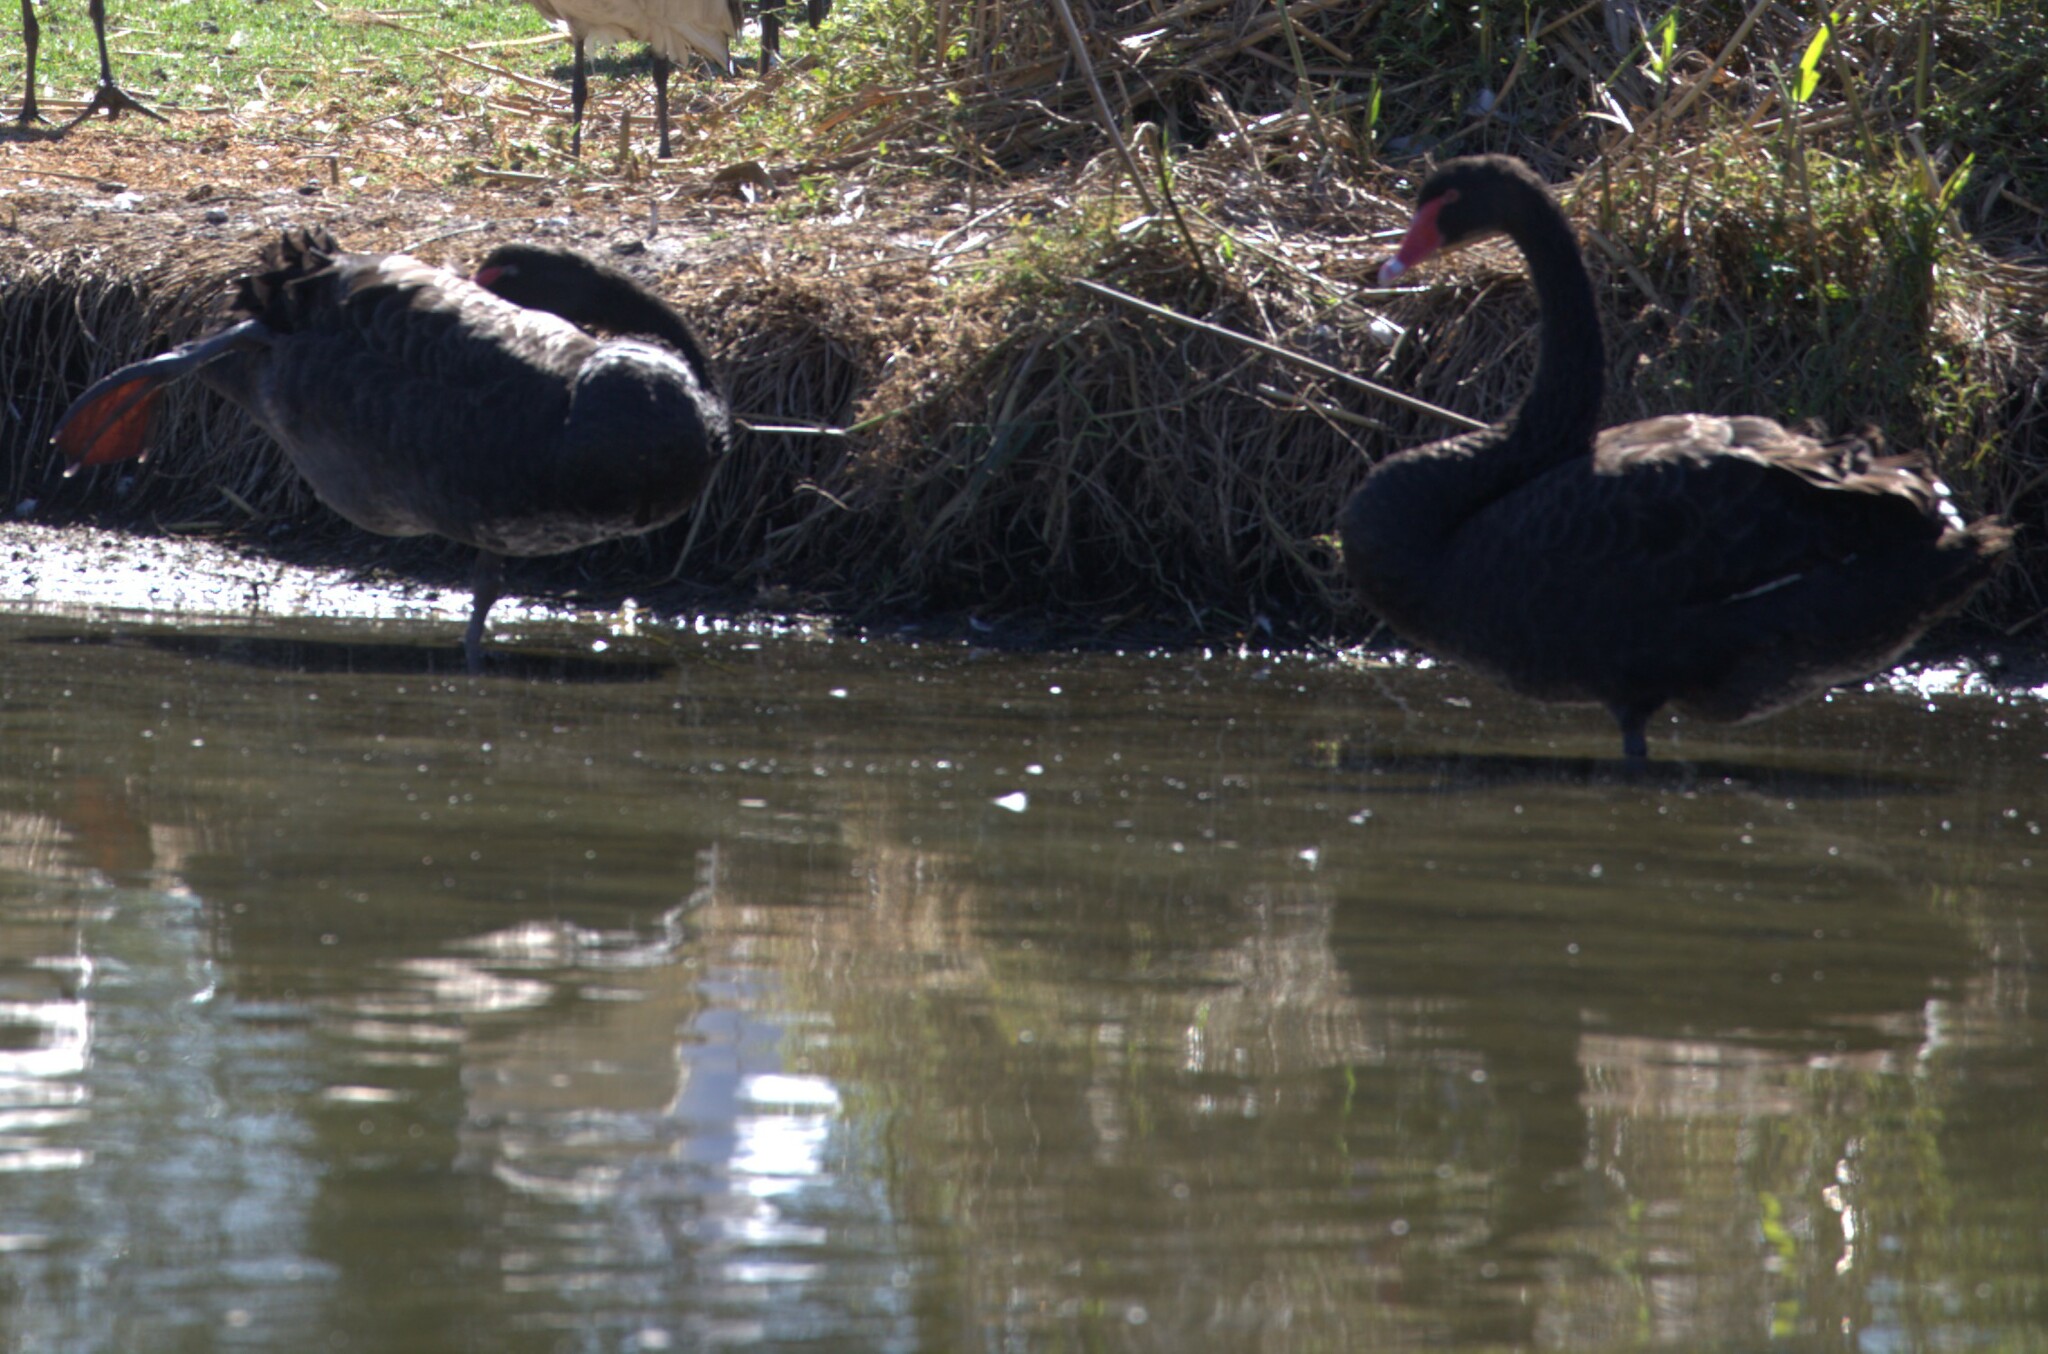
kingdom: Animalia
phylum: Chordata
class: Aves
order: Anseriformes
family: Anatidae
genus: Cygnus
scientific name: Cygnus atratus
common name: Black swan
